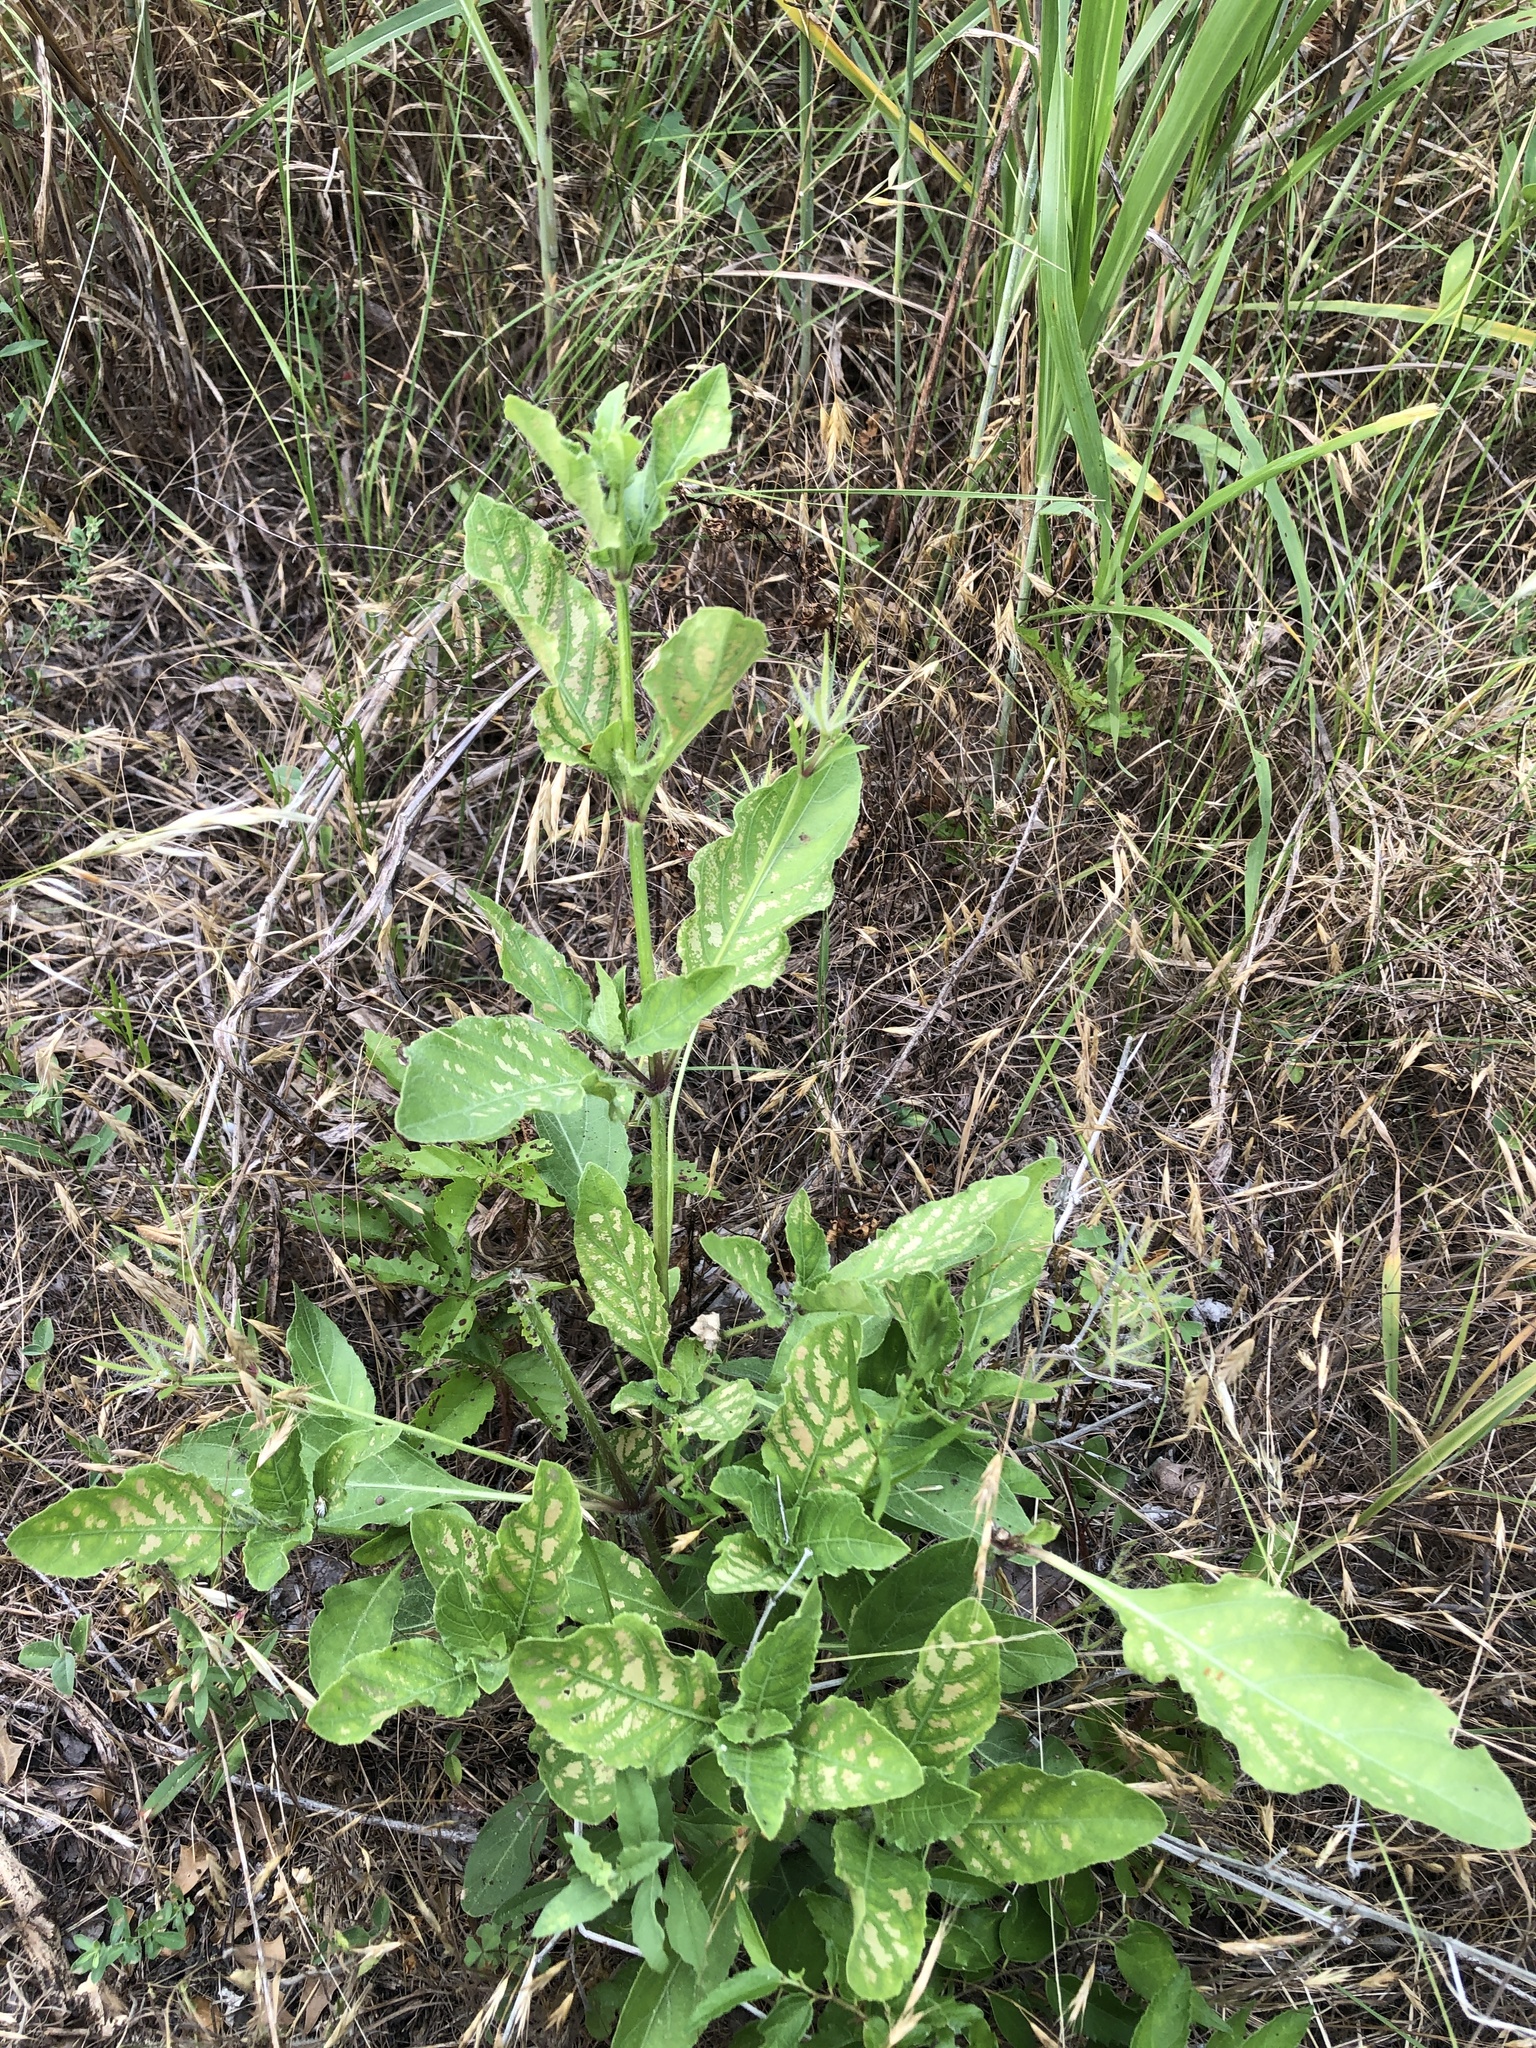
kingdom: Plantae
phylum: Tracheophyta
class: Magnoliopsida
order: Lamiales
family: Acanthaceae
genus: Ruellia
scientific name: Ruellia ciliatiflora
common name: Hairyflower wild petunia
